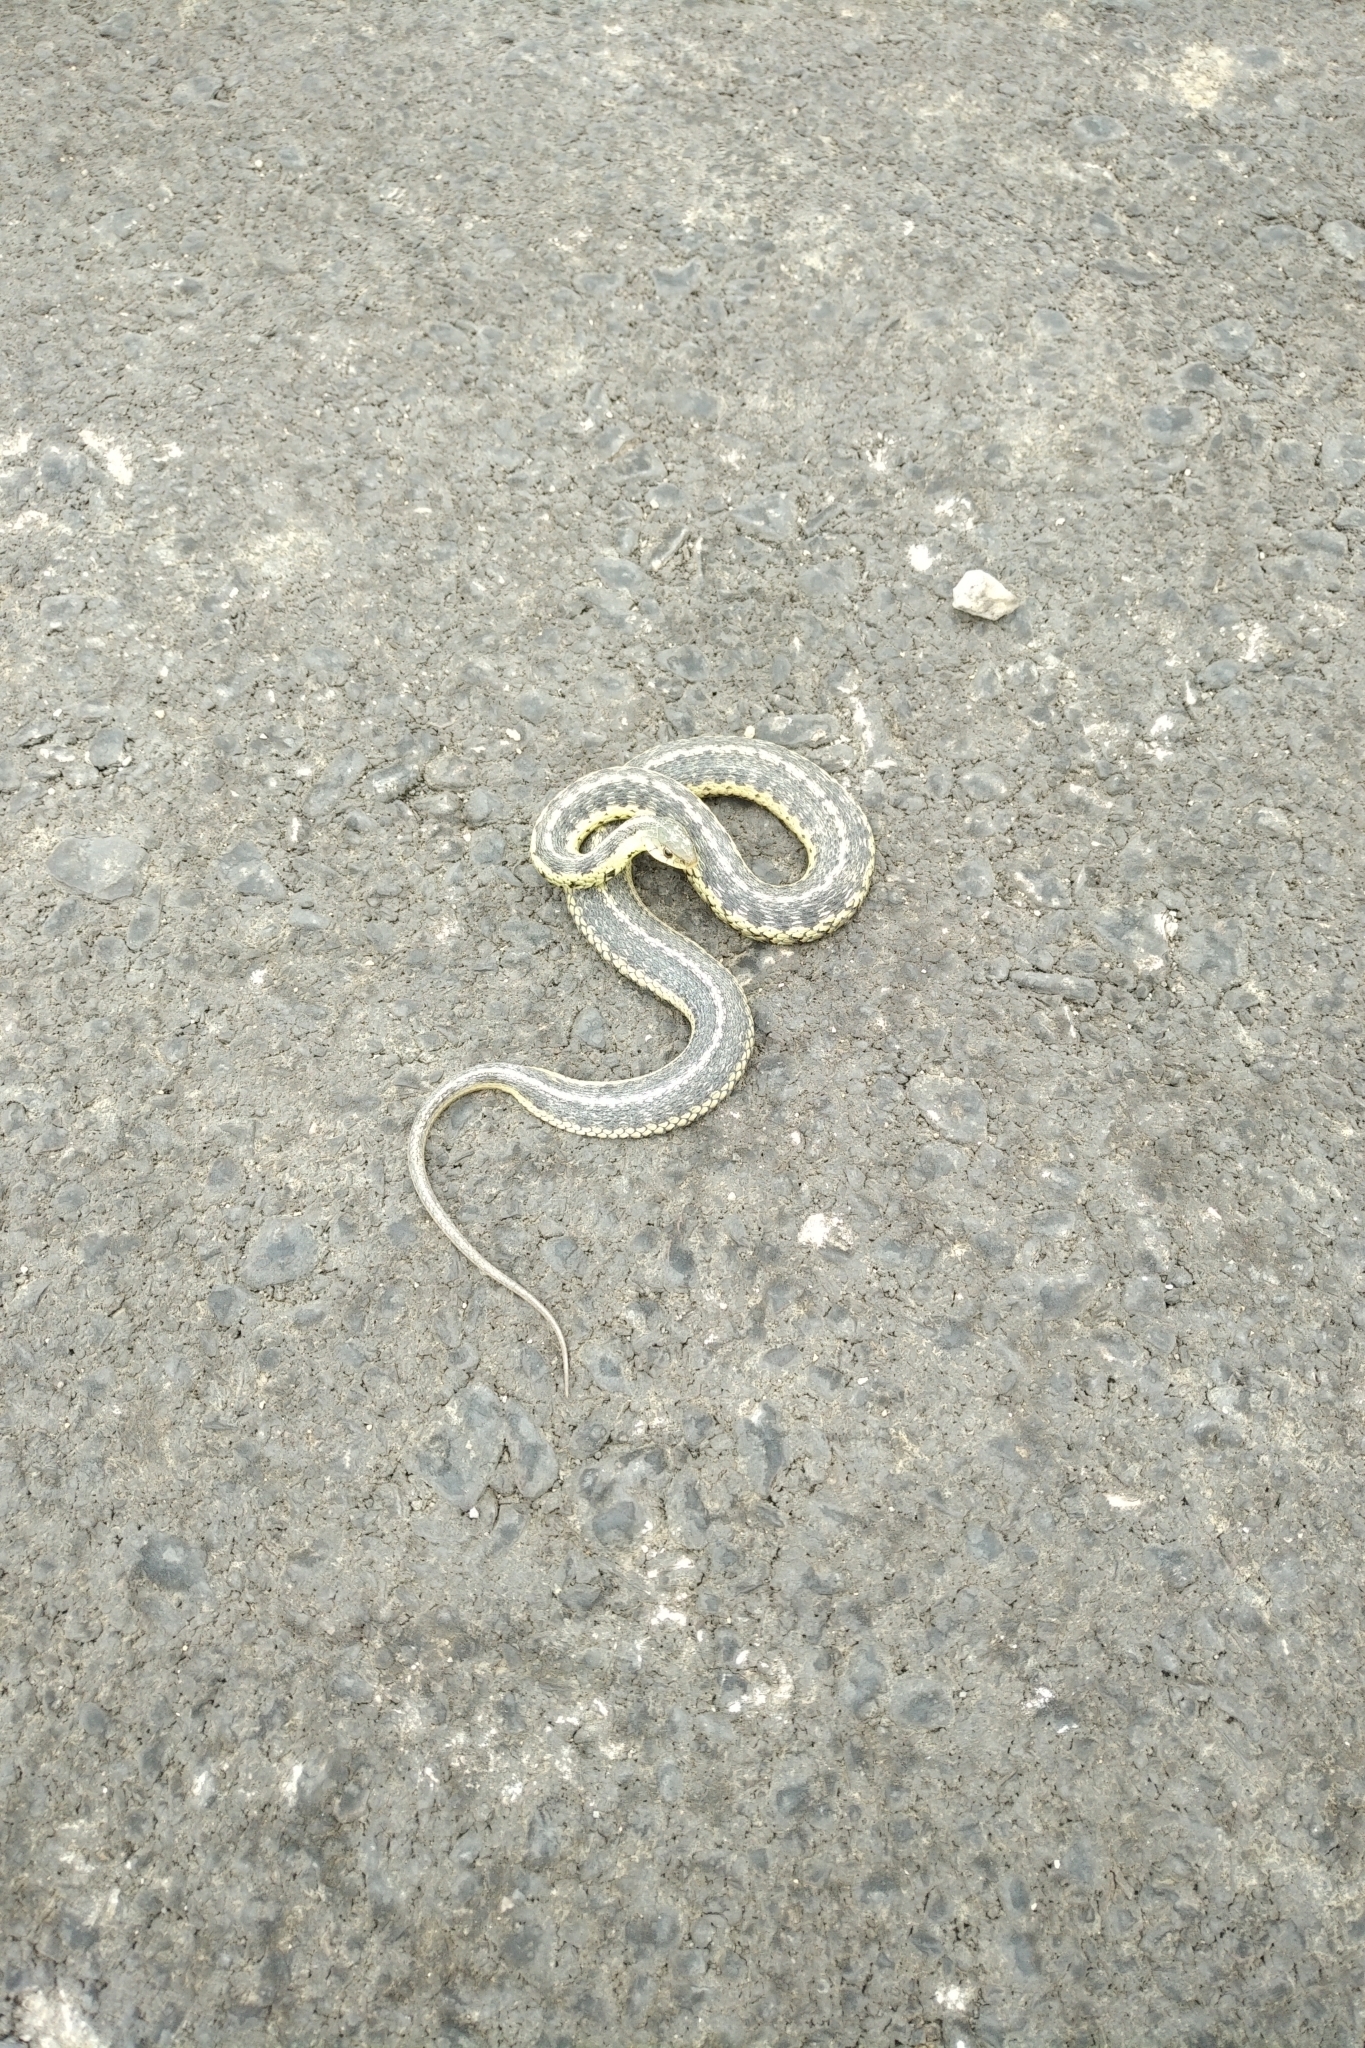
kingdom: Animalia
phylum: Chordata
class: Squamata
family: Colubridae
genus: Thamnophis
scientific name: Thamnophis sirtalis
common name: Common garter snake
